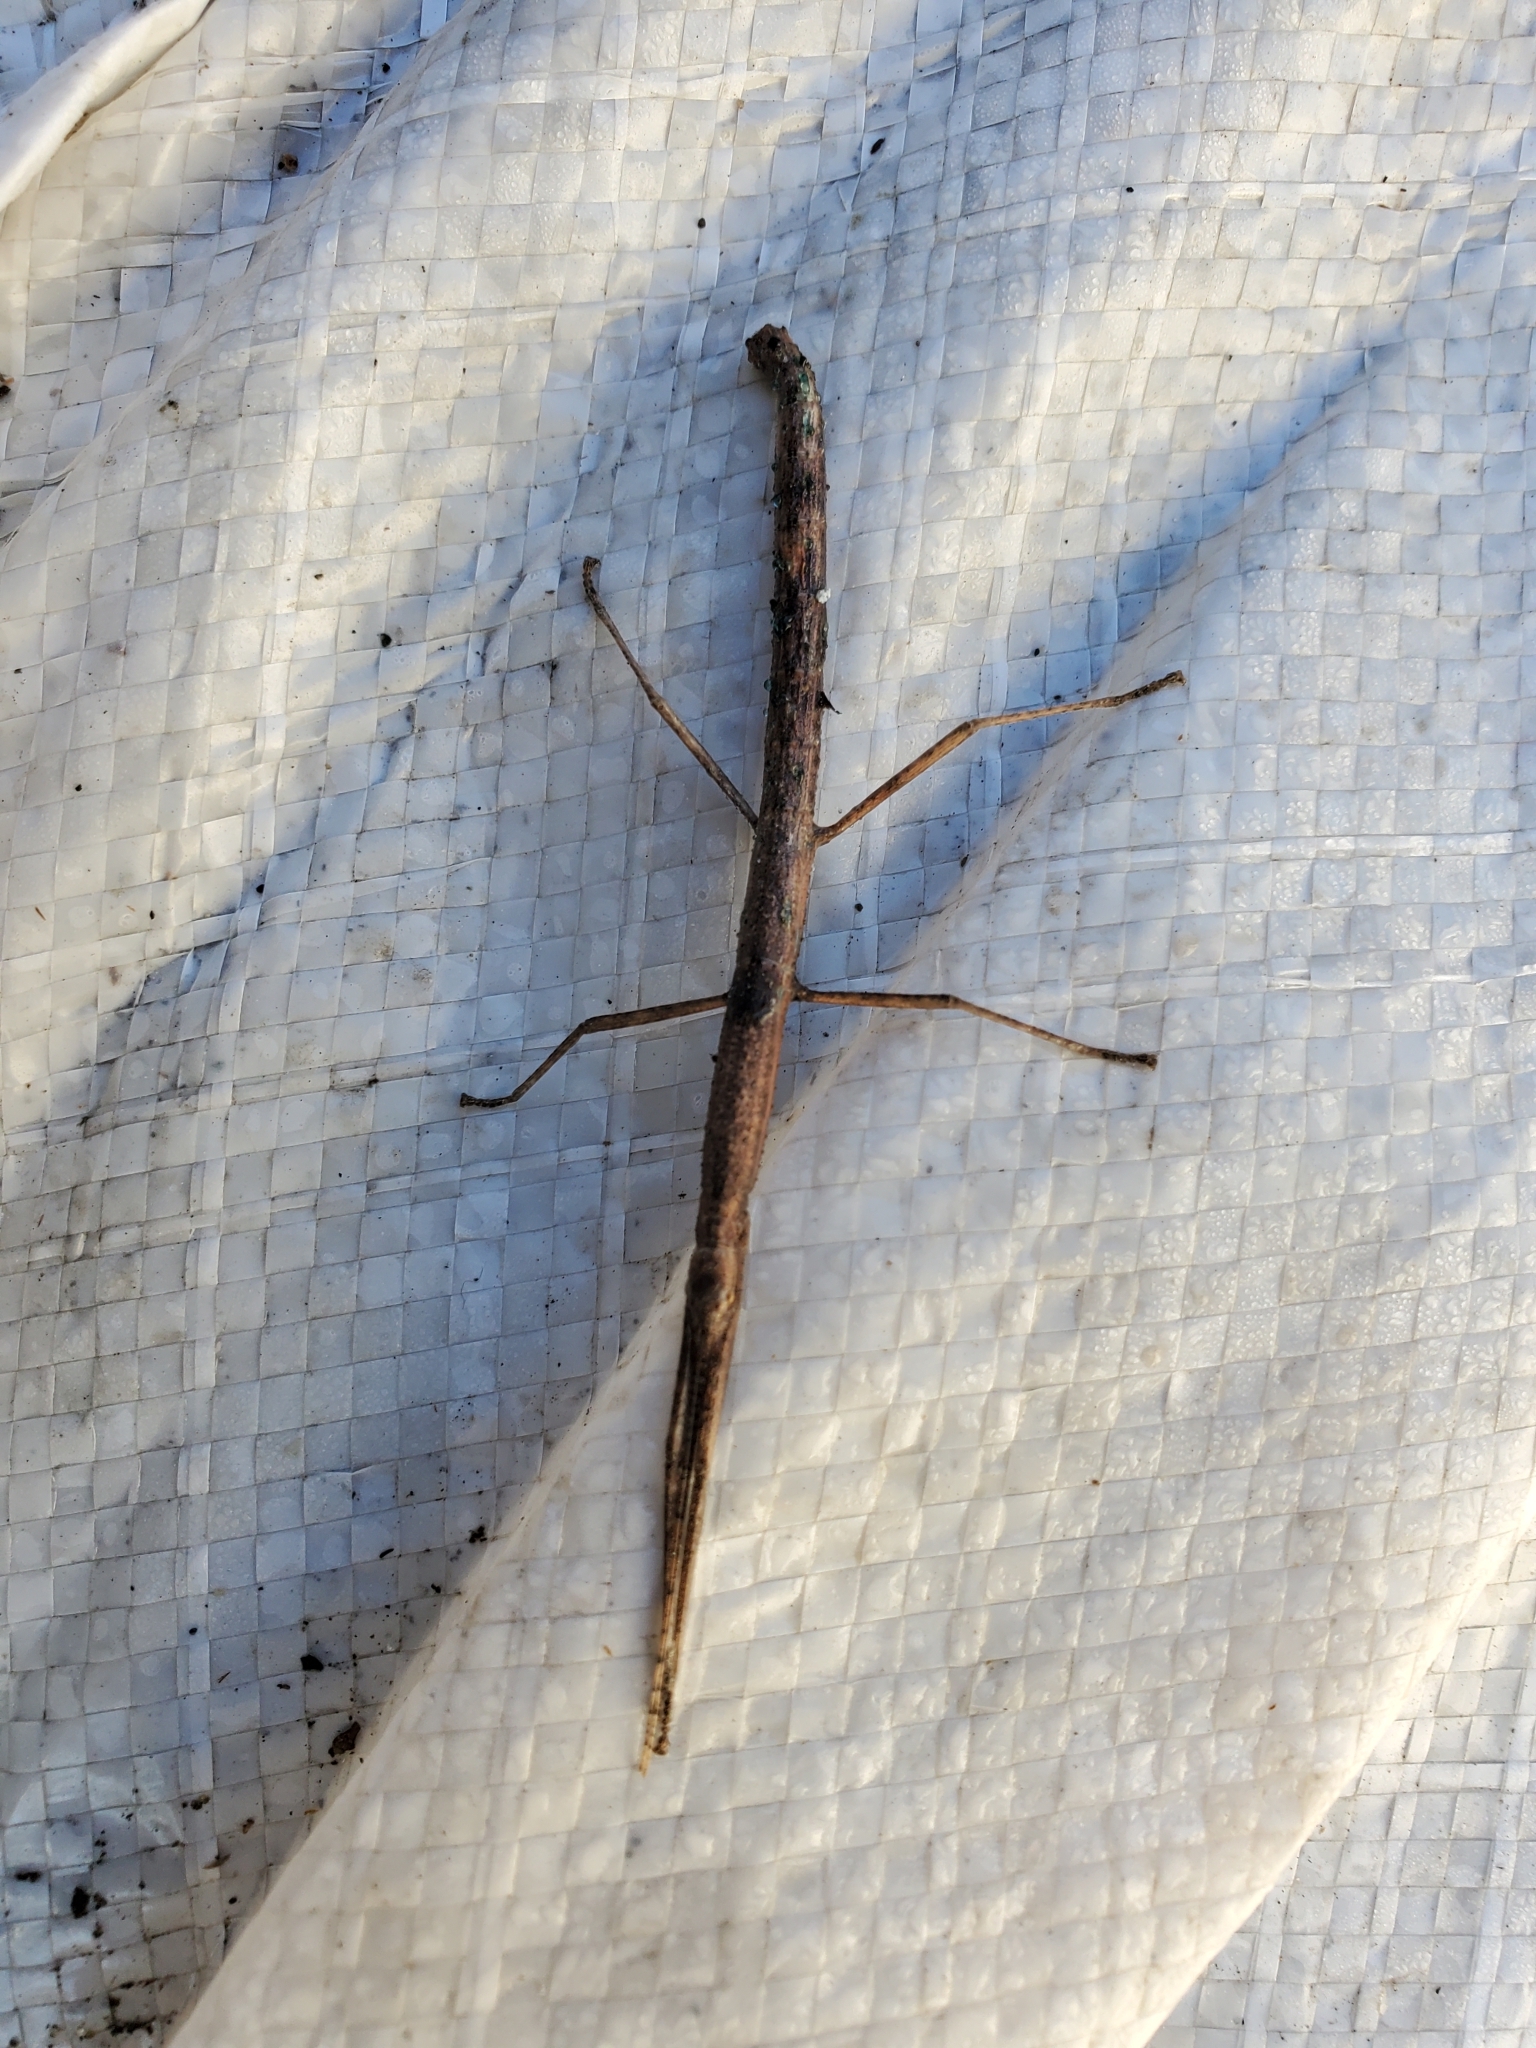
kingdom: Animalia
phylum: Arthropoda
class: Insecta
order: Phasmida
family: Lonchodidae
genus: Carausius
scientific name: Carausius morosus
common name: Indian stick insect
